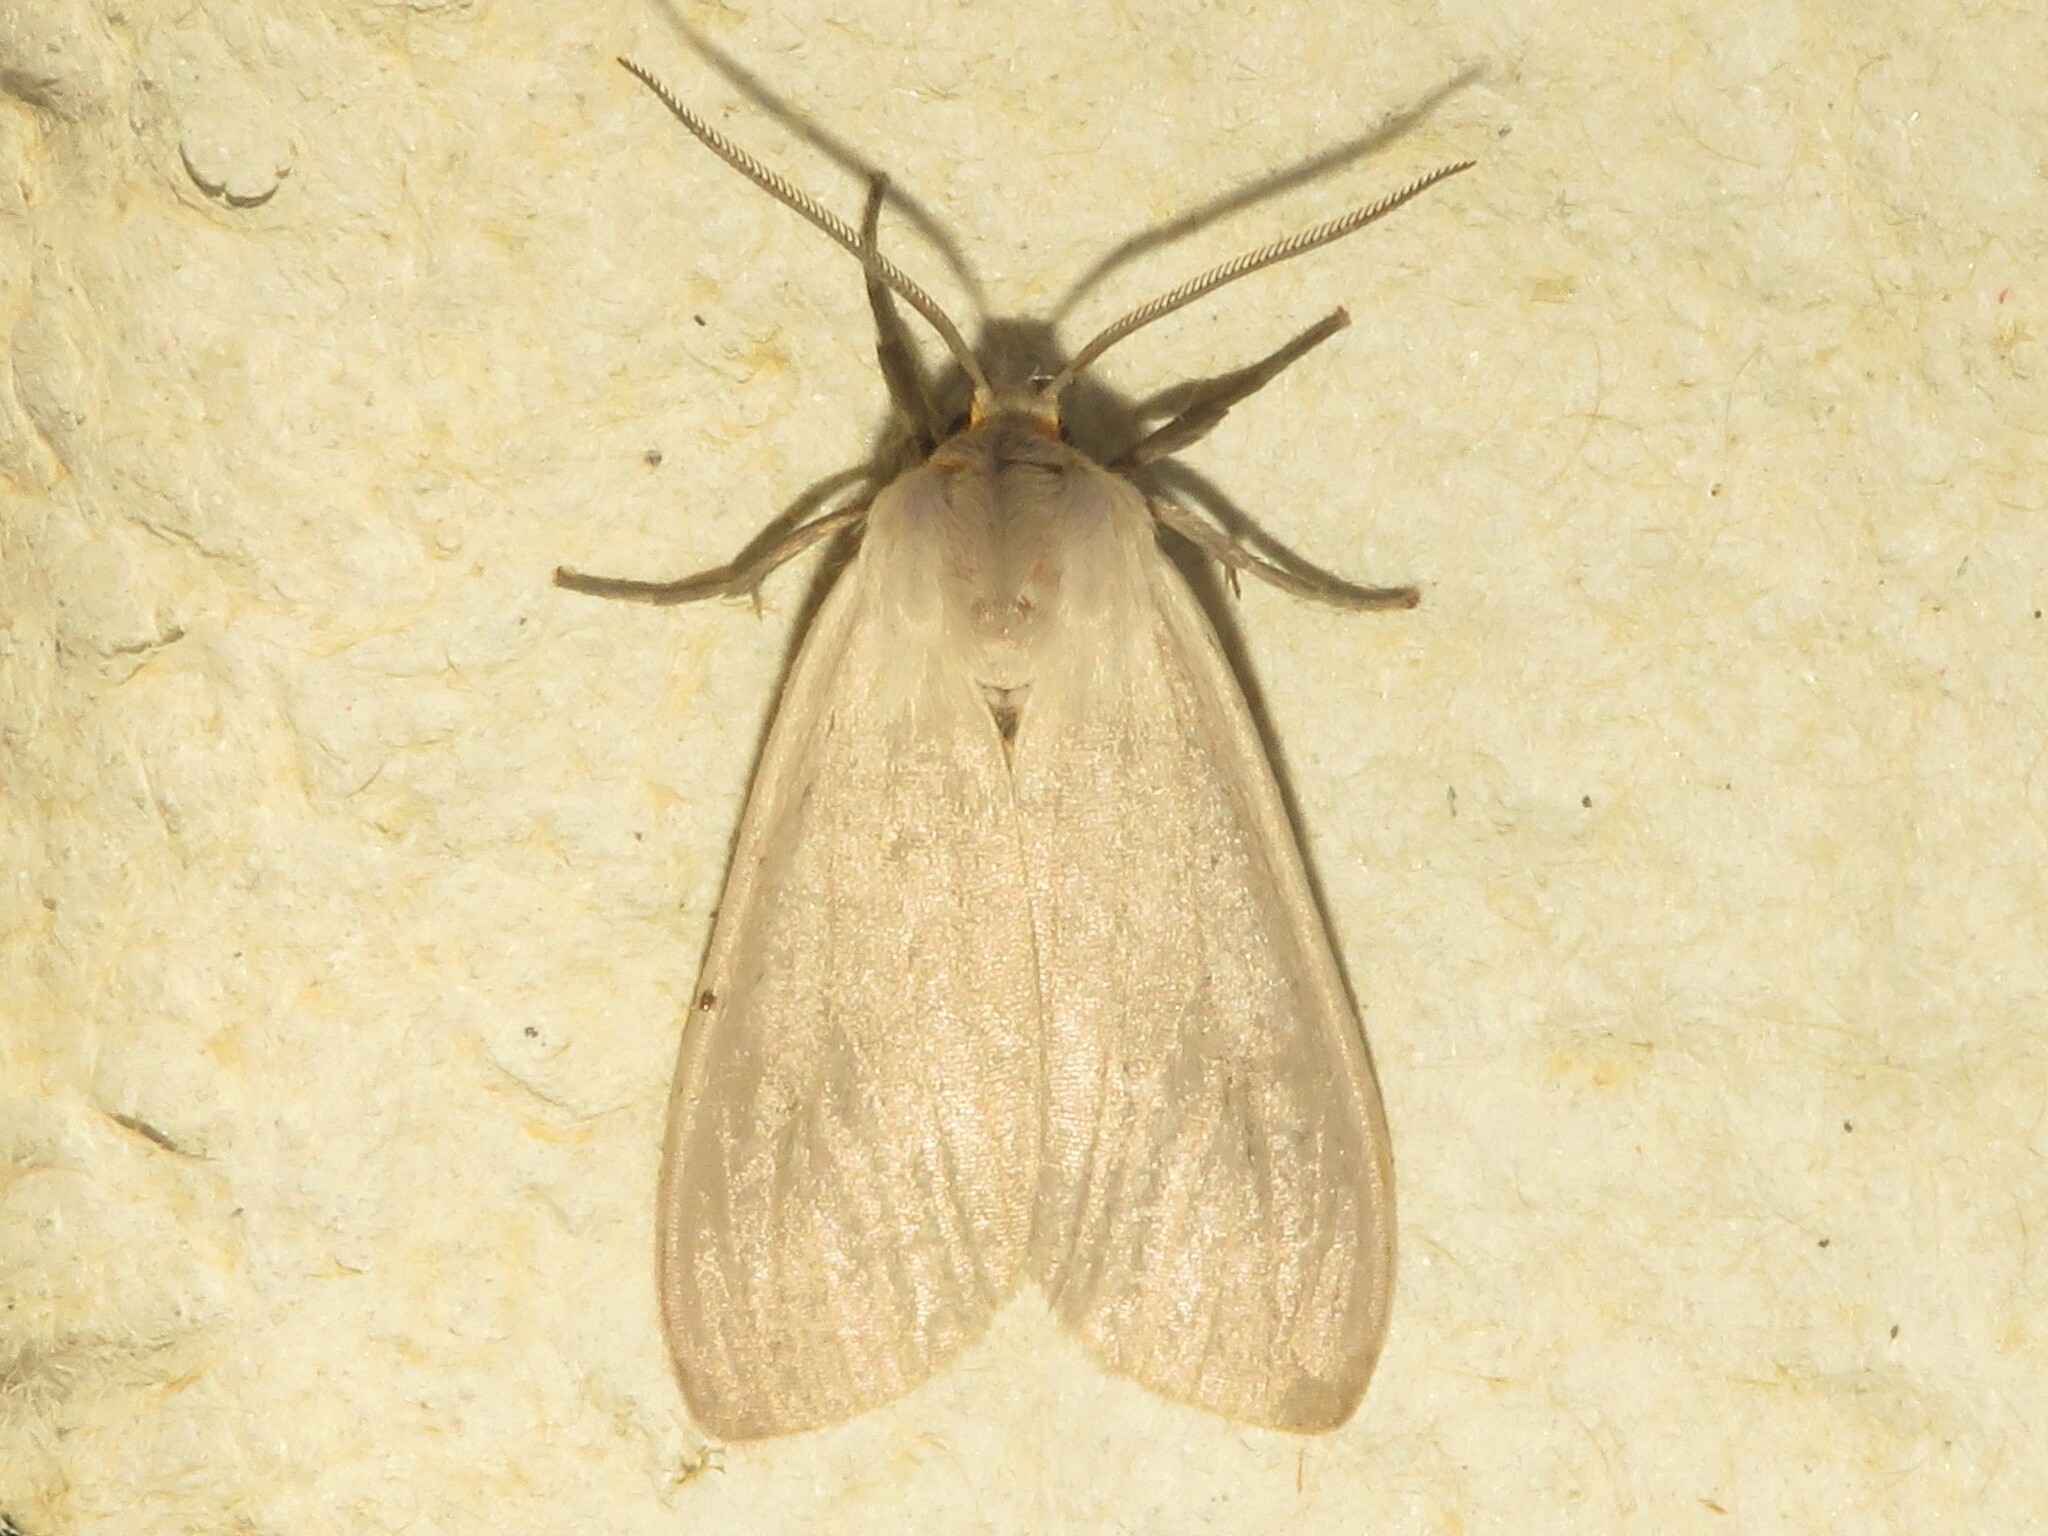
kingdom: Animalia
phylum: Arthropoda
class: Insecta
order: Lepidoptera
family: Erebidae
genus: Euchaetes
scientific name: Euchaetes egle
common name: Milkweed tussock moth
